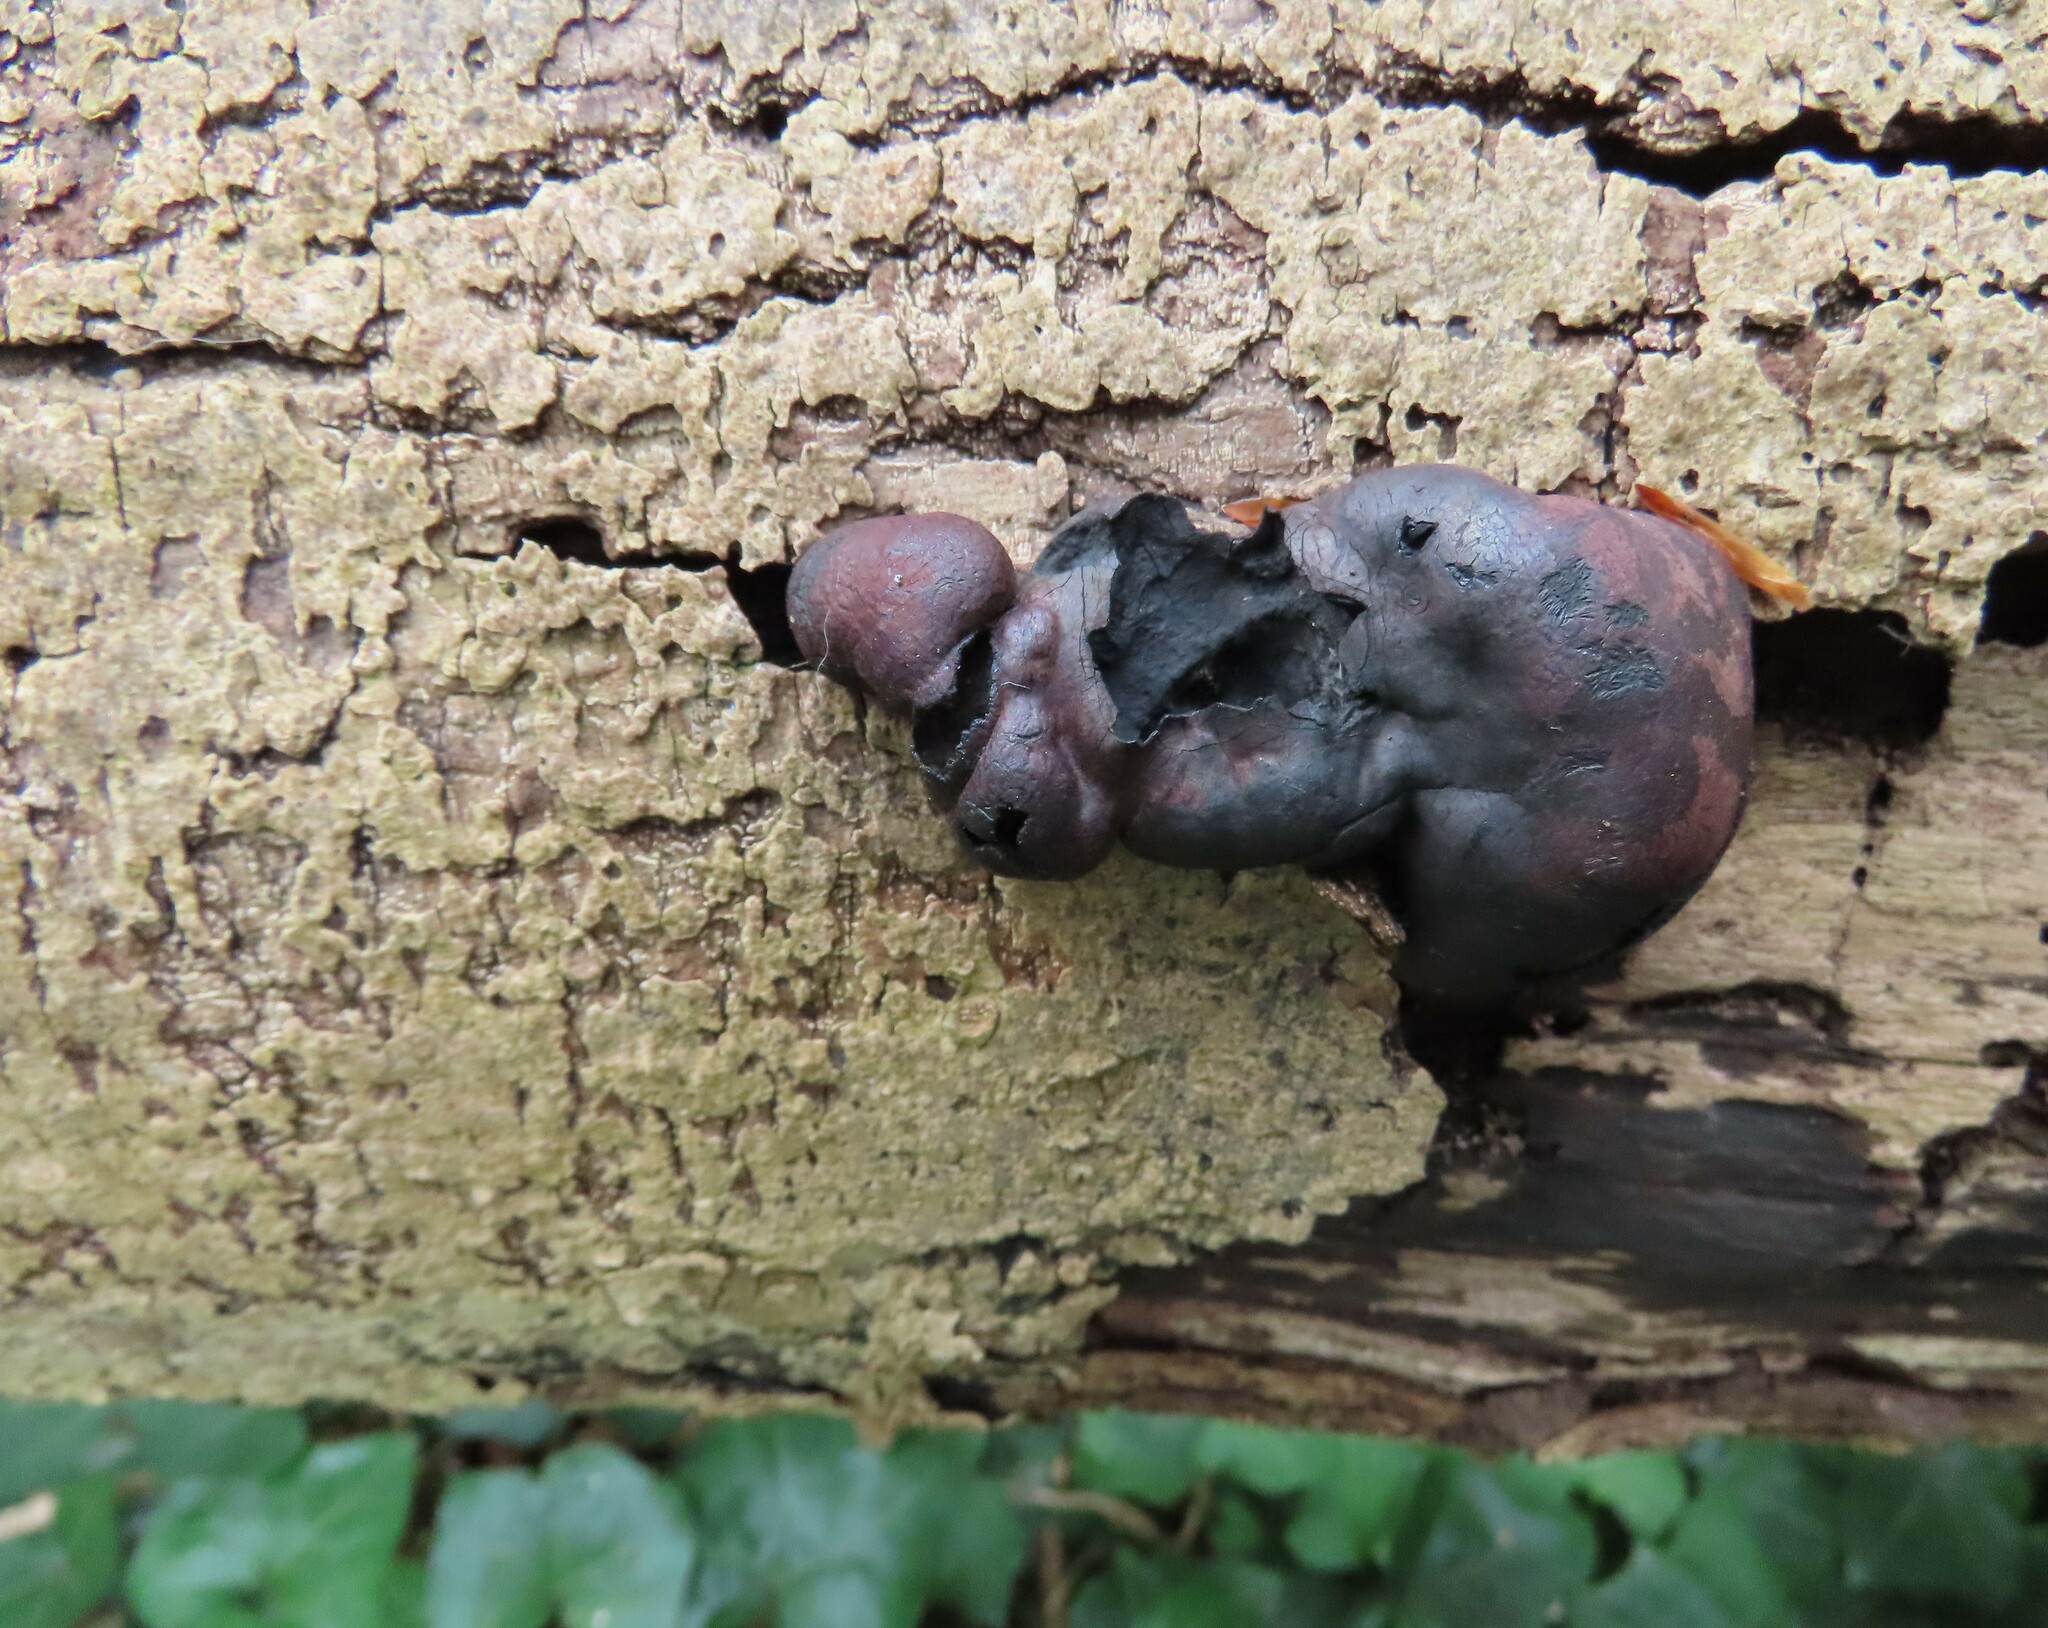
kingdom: Fungi
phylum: Ascomycota
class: Sordariomycetes
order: Xylariales
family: Hypoxylaceae
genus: Daldinia
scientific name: Daldinia concentrica
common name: Cramp balls
